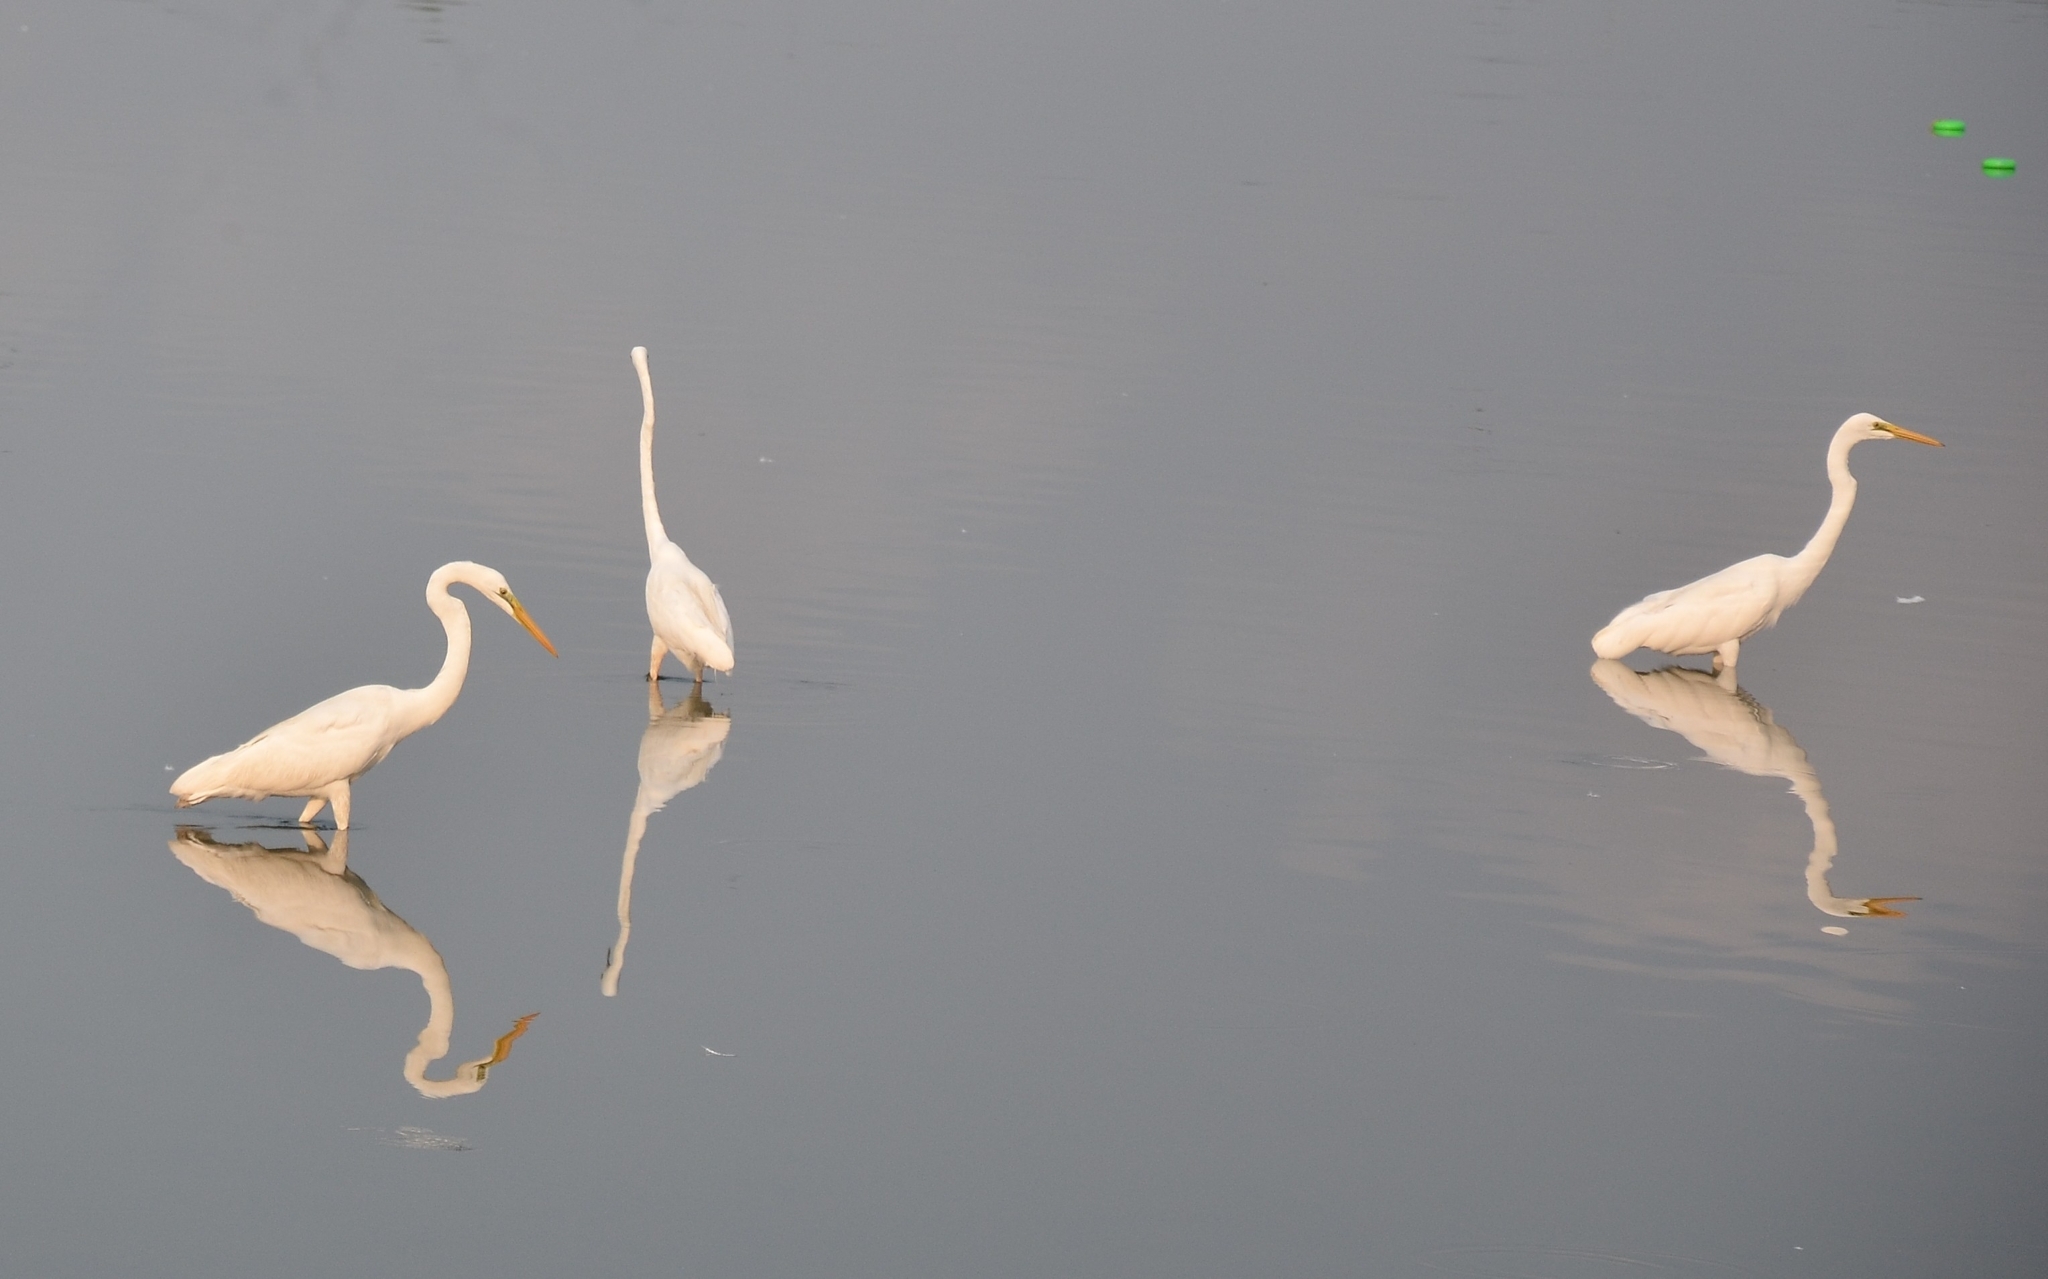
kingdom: Animalia
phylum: Chordata
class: Aves
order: Pelecaniformes
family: Ardeidae
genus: Ardea
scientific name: Ardea alba
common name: Great egret
